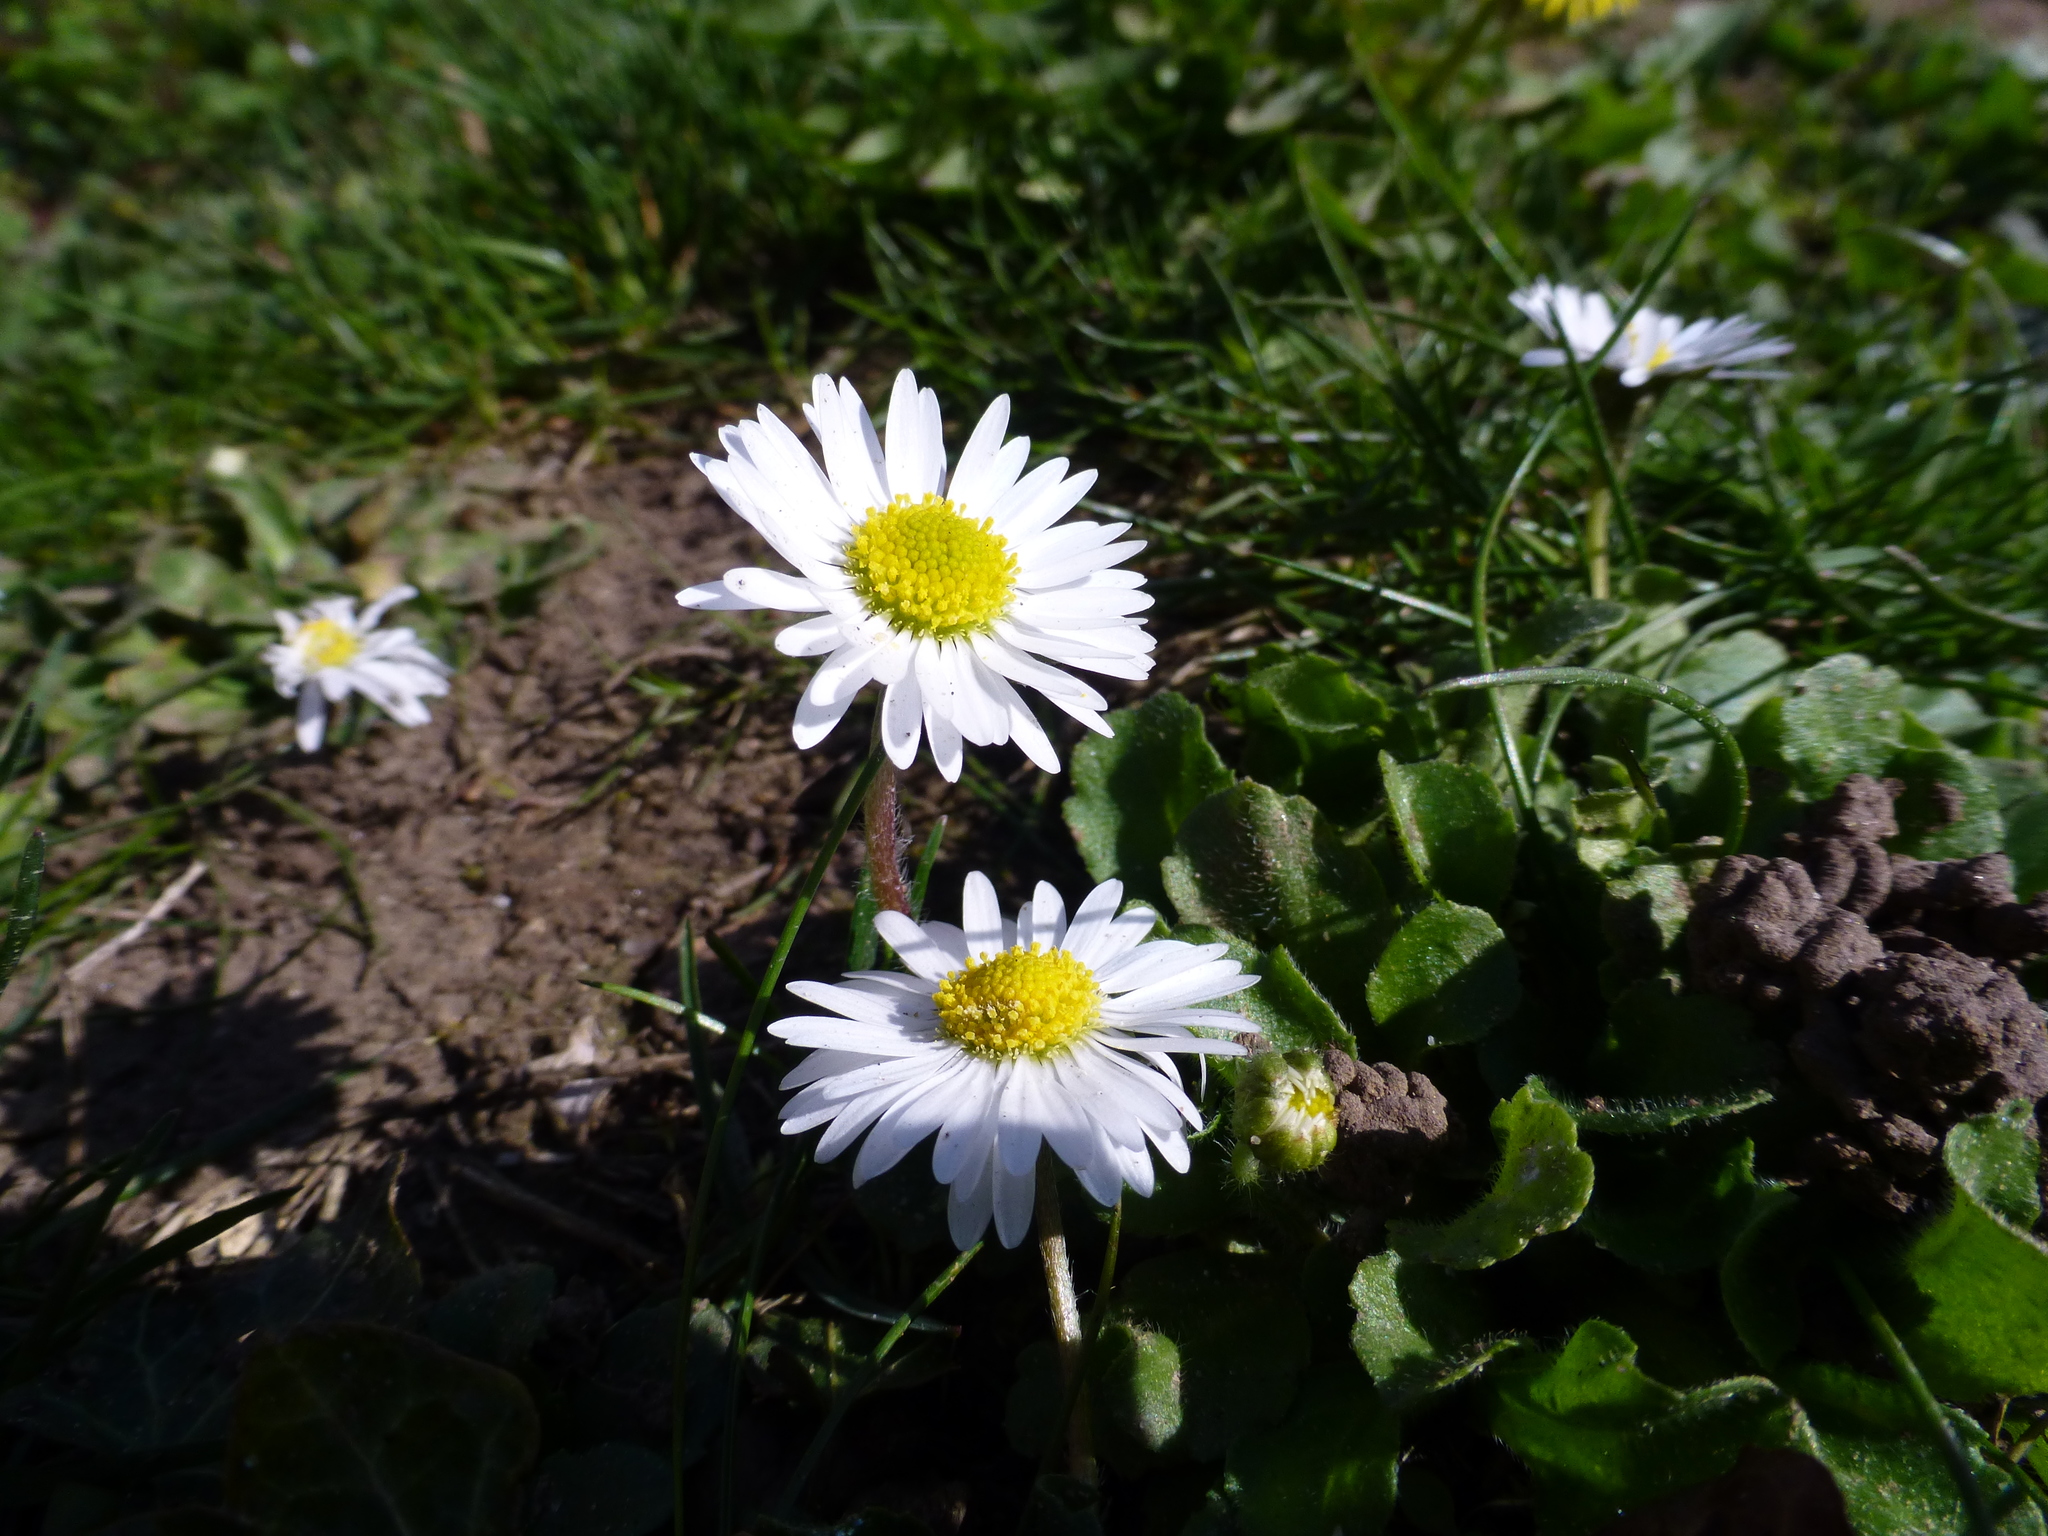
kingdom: Plantae
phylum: Tracheophyta
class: Magnoliopsida
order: Asterales
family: Asteraceae
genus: Bellis
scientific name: Bellis perennis
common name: Lawndaisy
